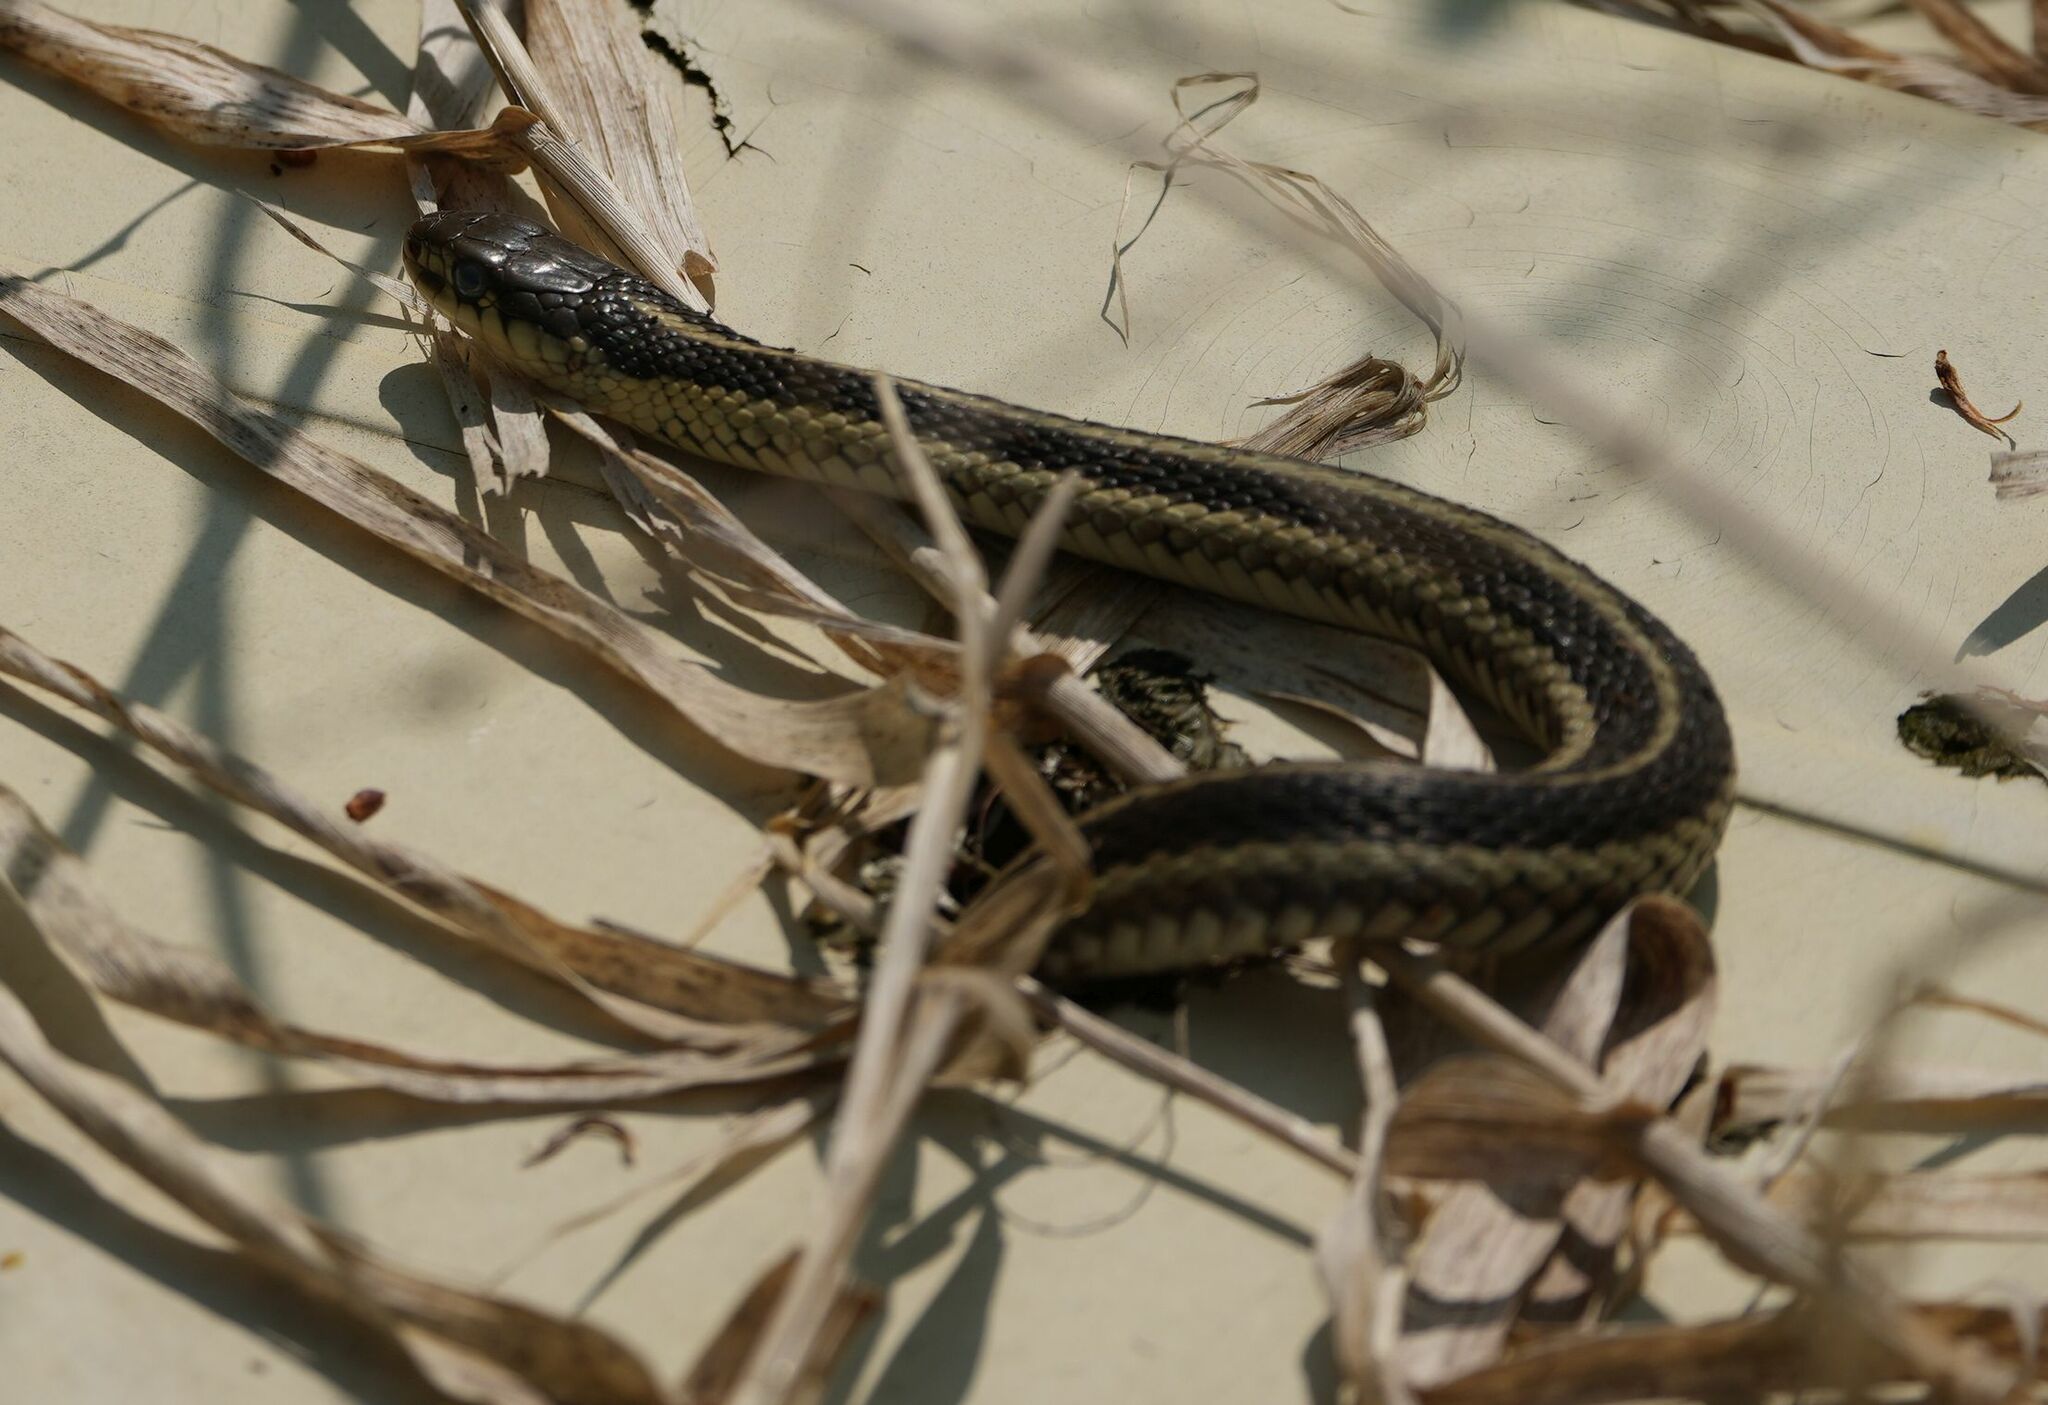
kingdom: Animalia
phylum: Chordata
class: Squamata
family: Colubridae
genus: Thamnophis
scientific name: Thamnophis sirtalis
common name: Common garter snake
